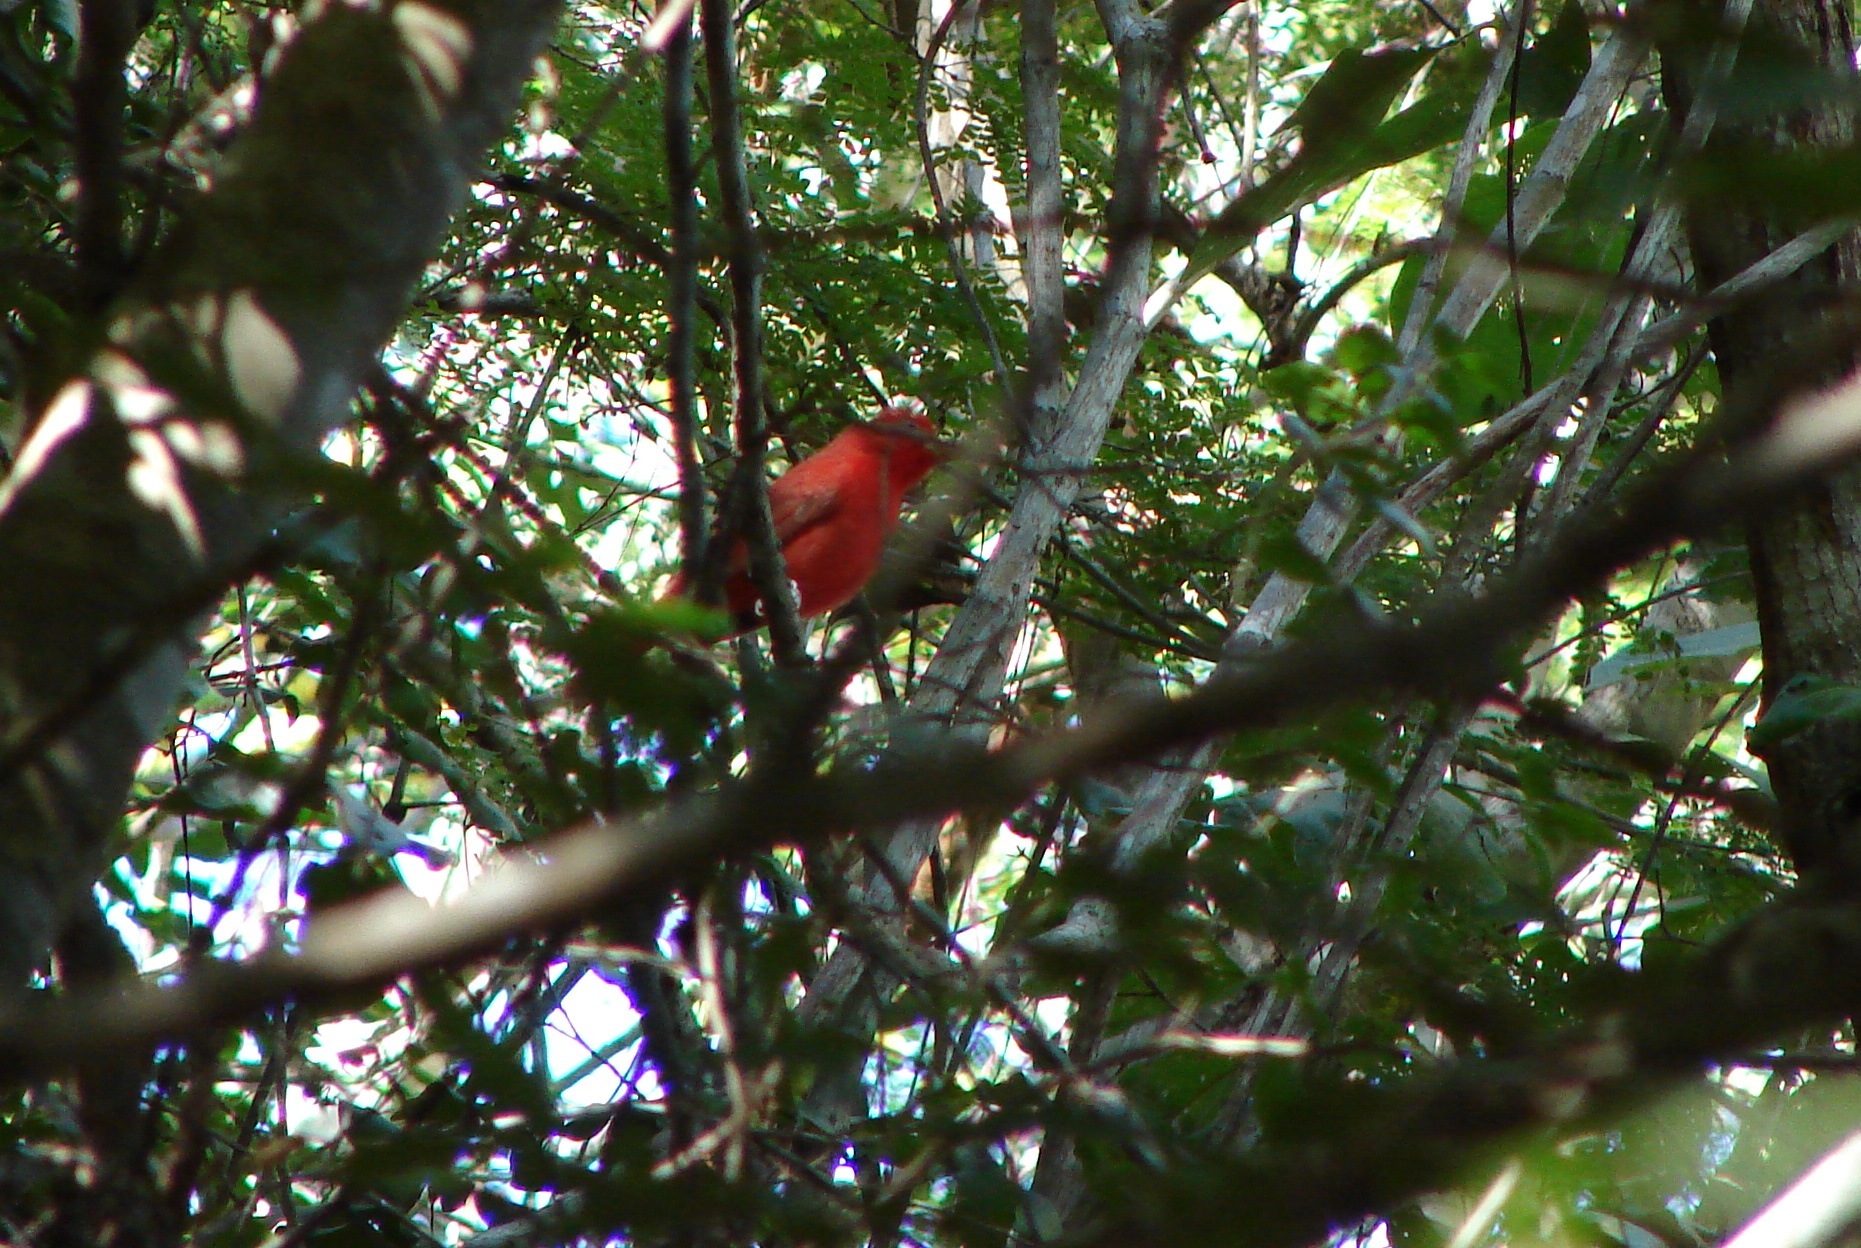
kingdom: Animalia
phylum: Chordata
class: Aves
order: Passeriformes
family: Cardinalidae
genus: Piranga
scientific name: Piranga rubra
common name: Summer tanager
